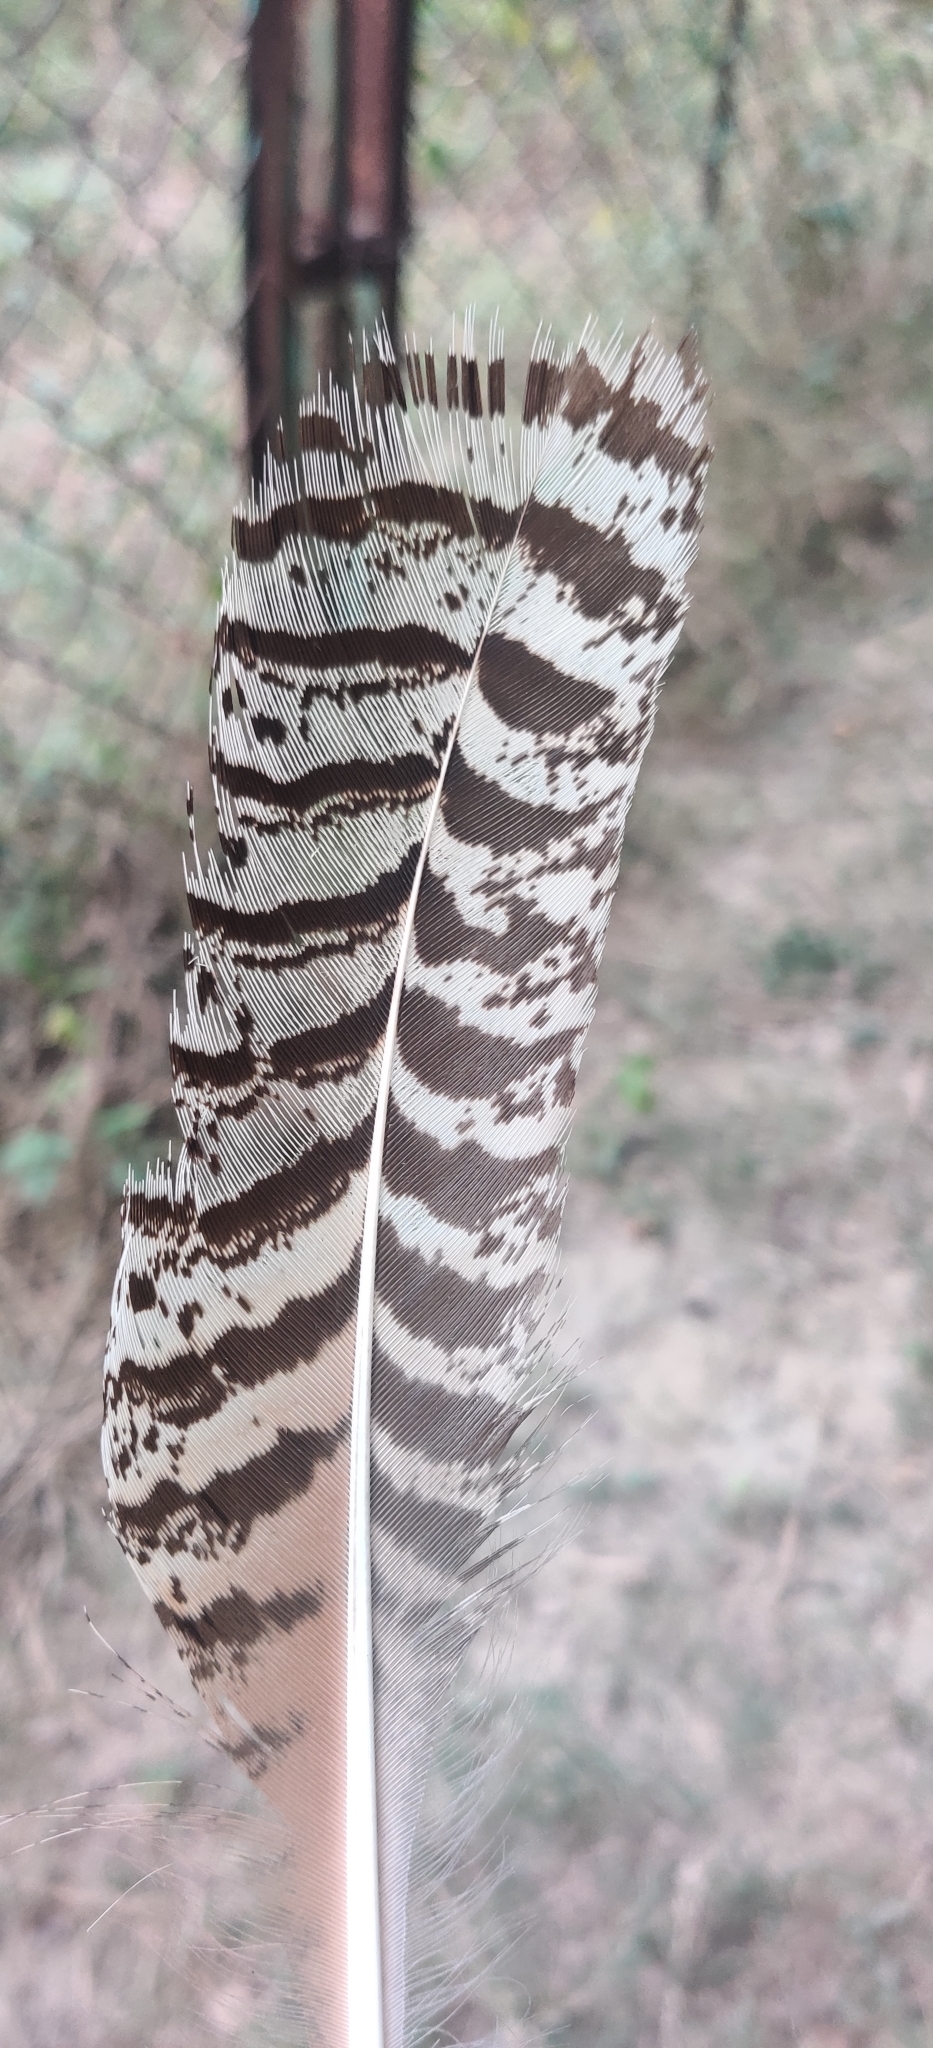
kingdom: Animalia
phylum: Chordata
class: Aves
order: Galliformes
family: Phasianidae
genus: Pavo
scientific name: Pavo cristatus
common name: Indian peafowl
